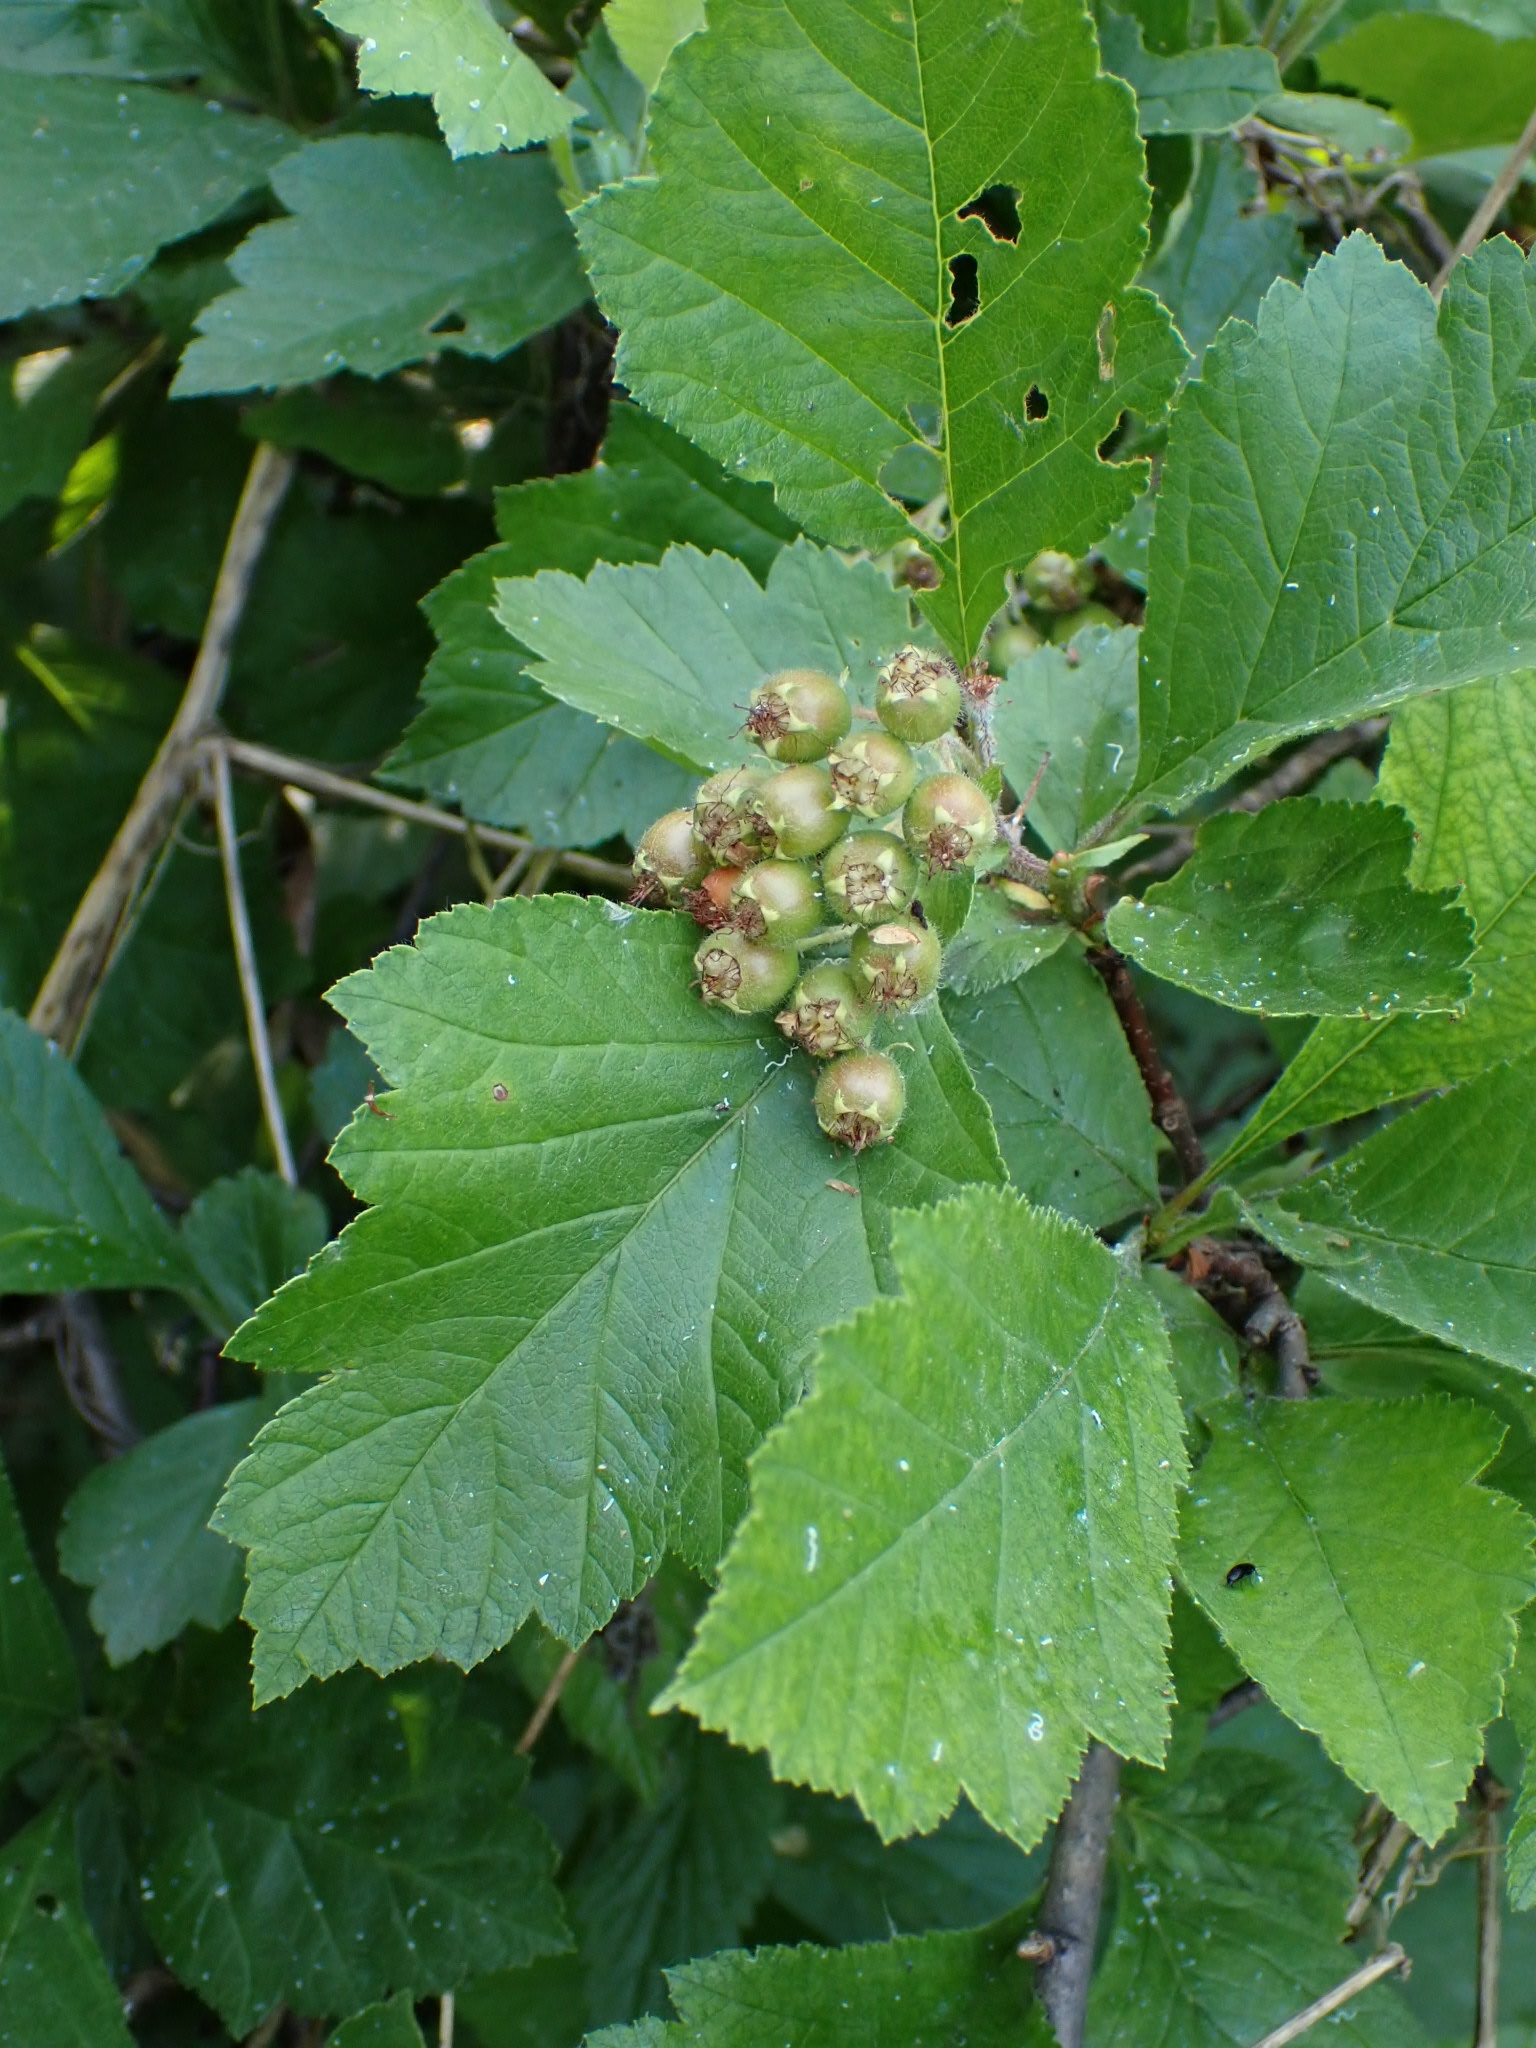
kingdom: Plantae
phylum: Tracheophyta
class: Magnoliopsida
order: Rosales
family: Rosaceae
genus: Crataegus
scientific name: Crataegus sanguinea
